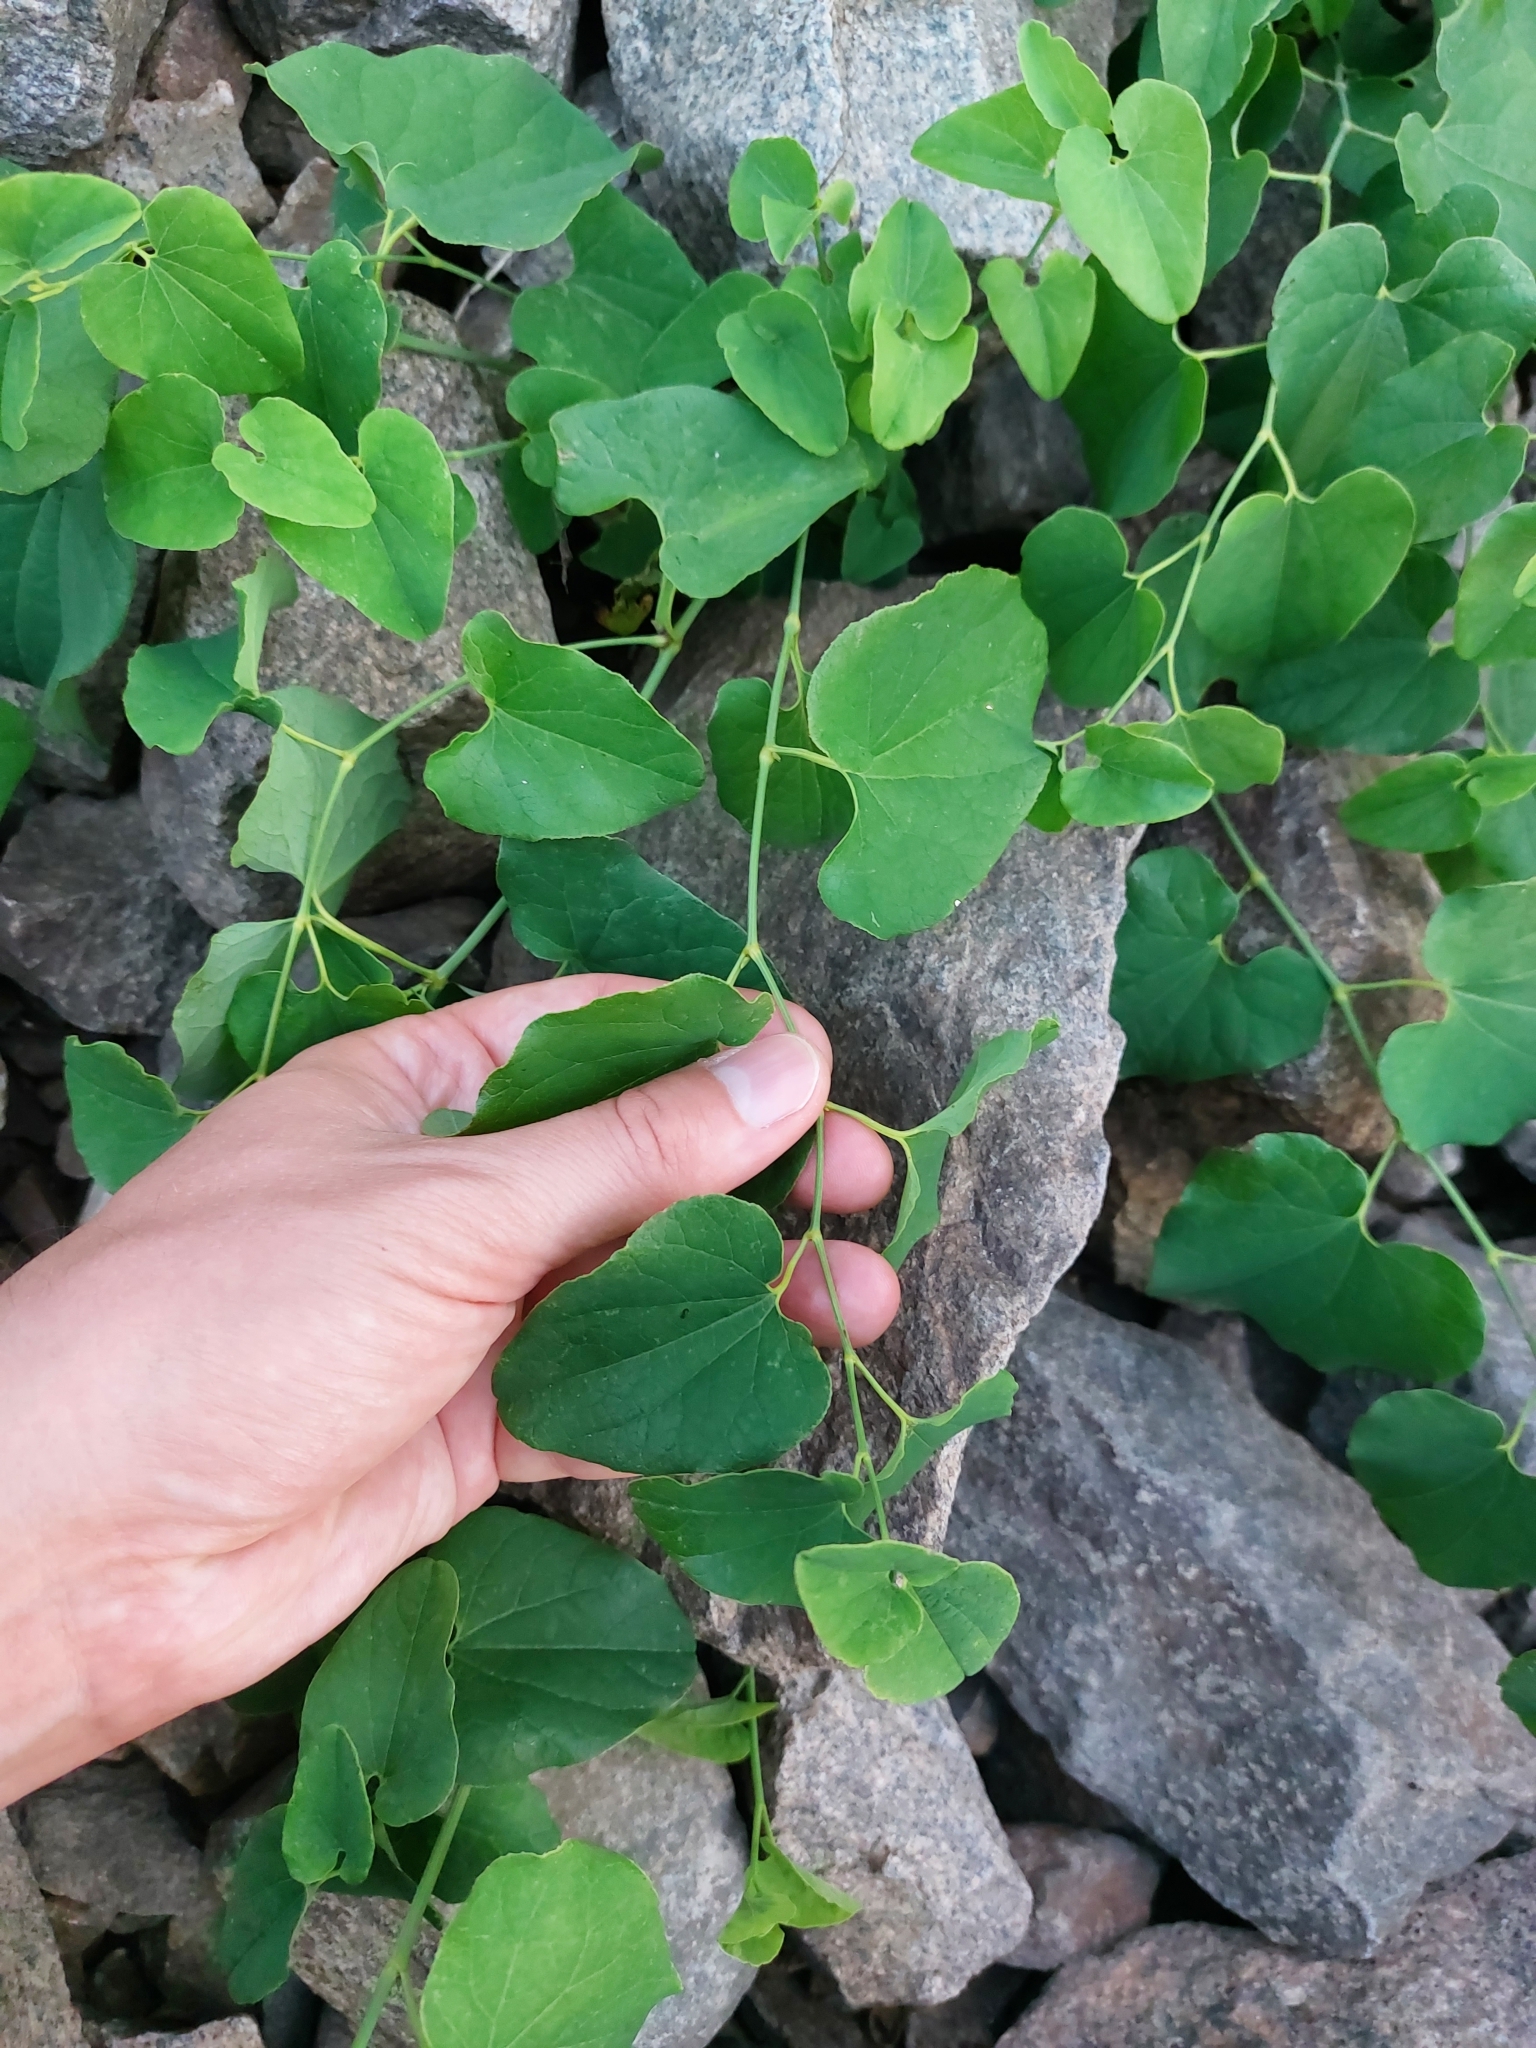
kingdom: Plantae
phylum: Tracheophyta
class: Magnoliopsida
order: Piperales
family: Aristolochiaceae
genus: Aristolochia
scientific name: Aristolochia clematitis
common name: Birthwort
